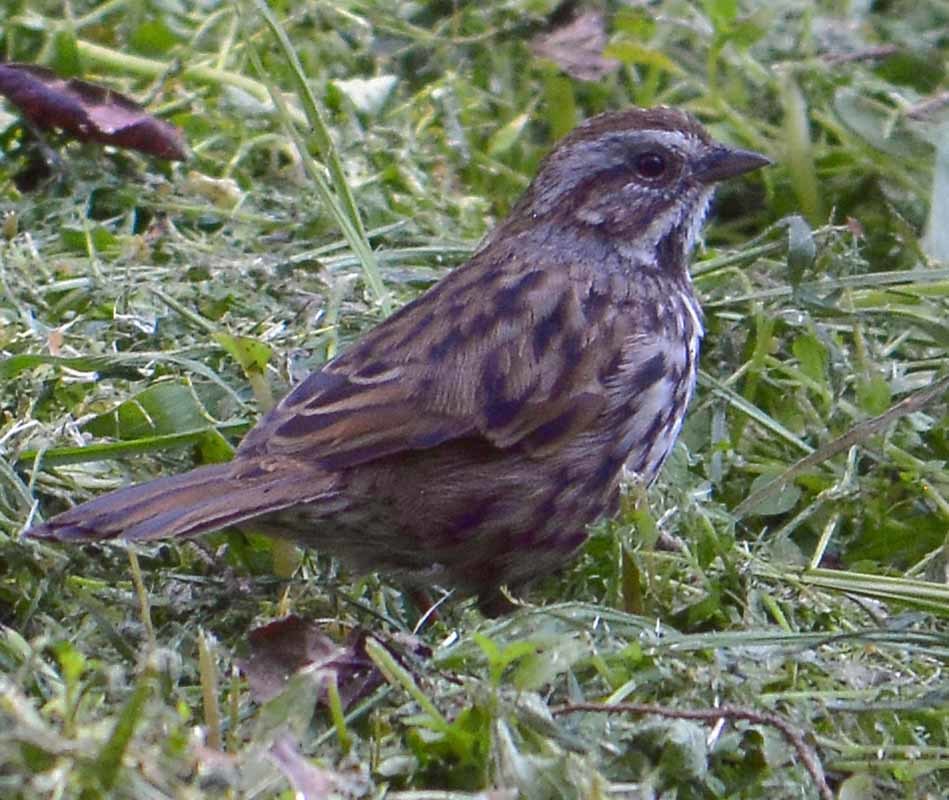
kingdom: Animalia
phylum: Chordata
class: Aves
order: Passeriformes
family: Passerellidae
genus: Melospiza
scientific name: Melospiza melodia
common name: Song sparrow
